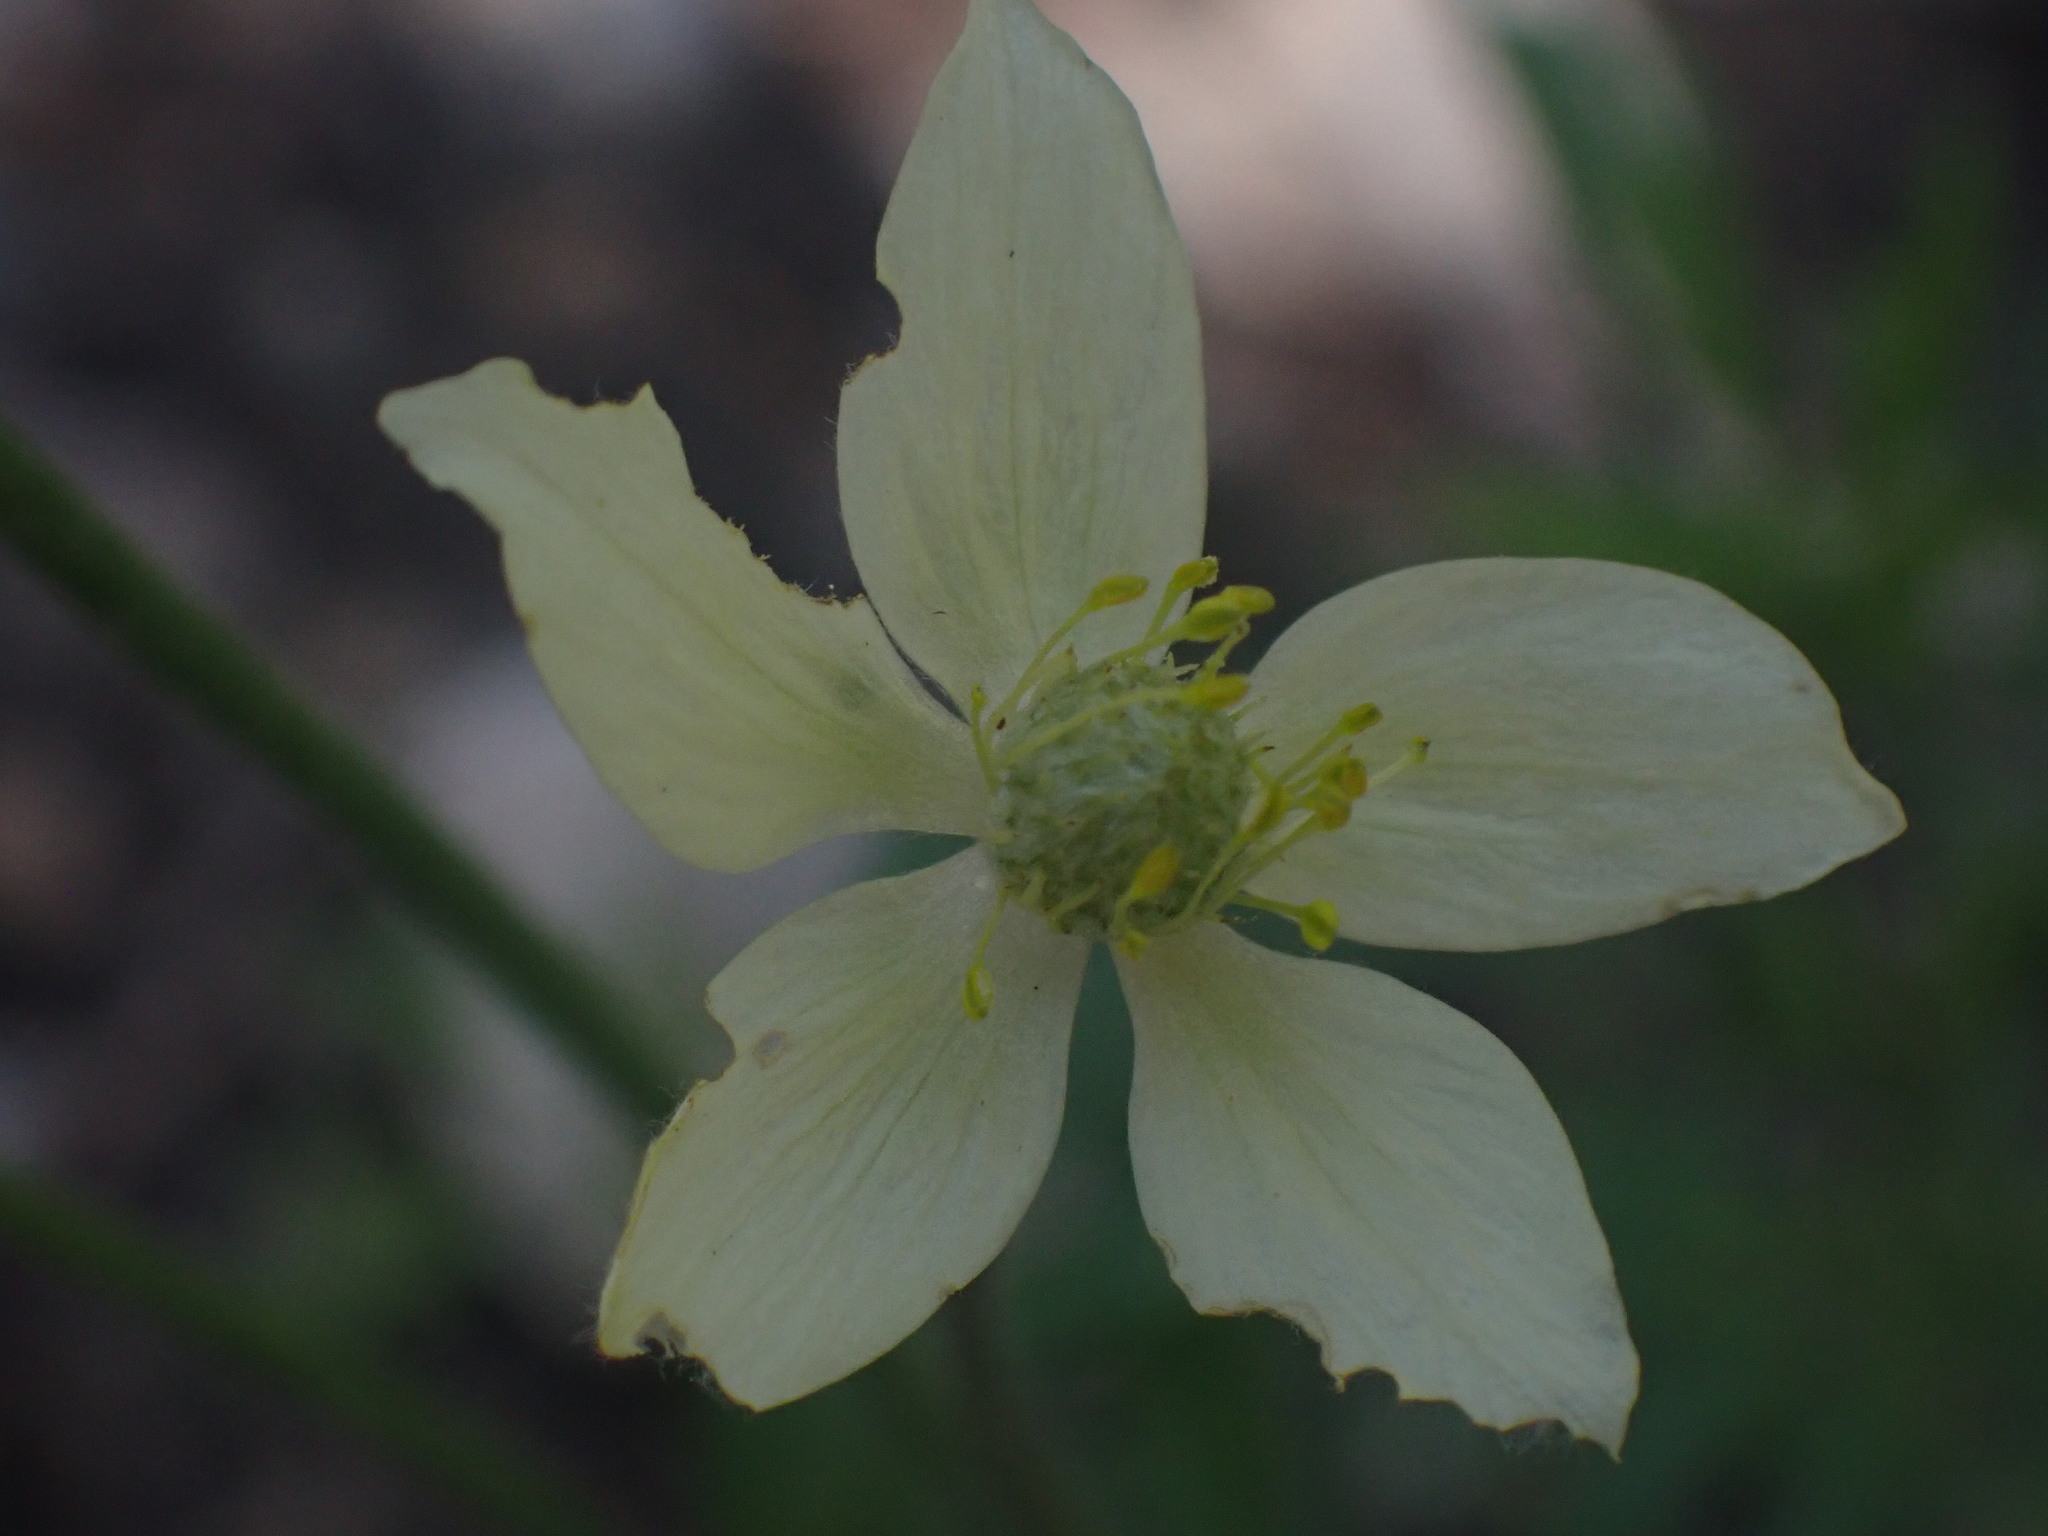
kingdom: Plantae
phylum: Tracheophyta
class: Magnoliopsida
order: Ranunculales
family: Ranunculaceae
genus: Anemone
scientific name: Anemone multifida
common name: Bird's-foot anemone
